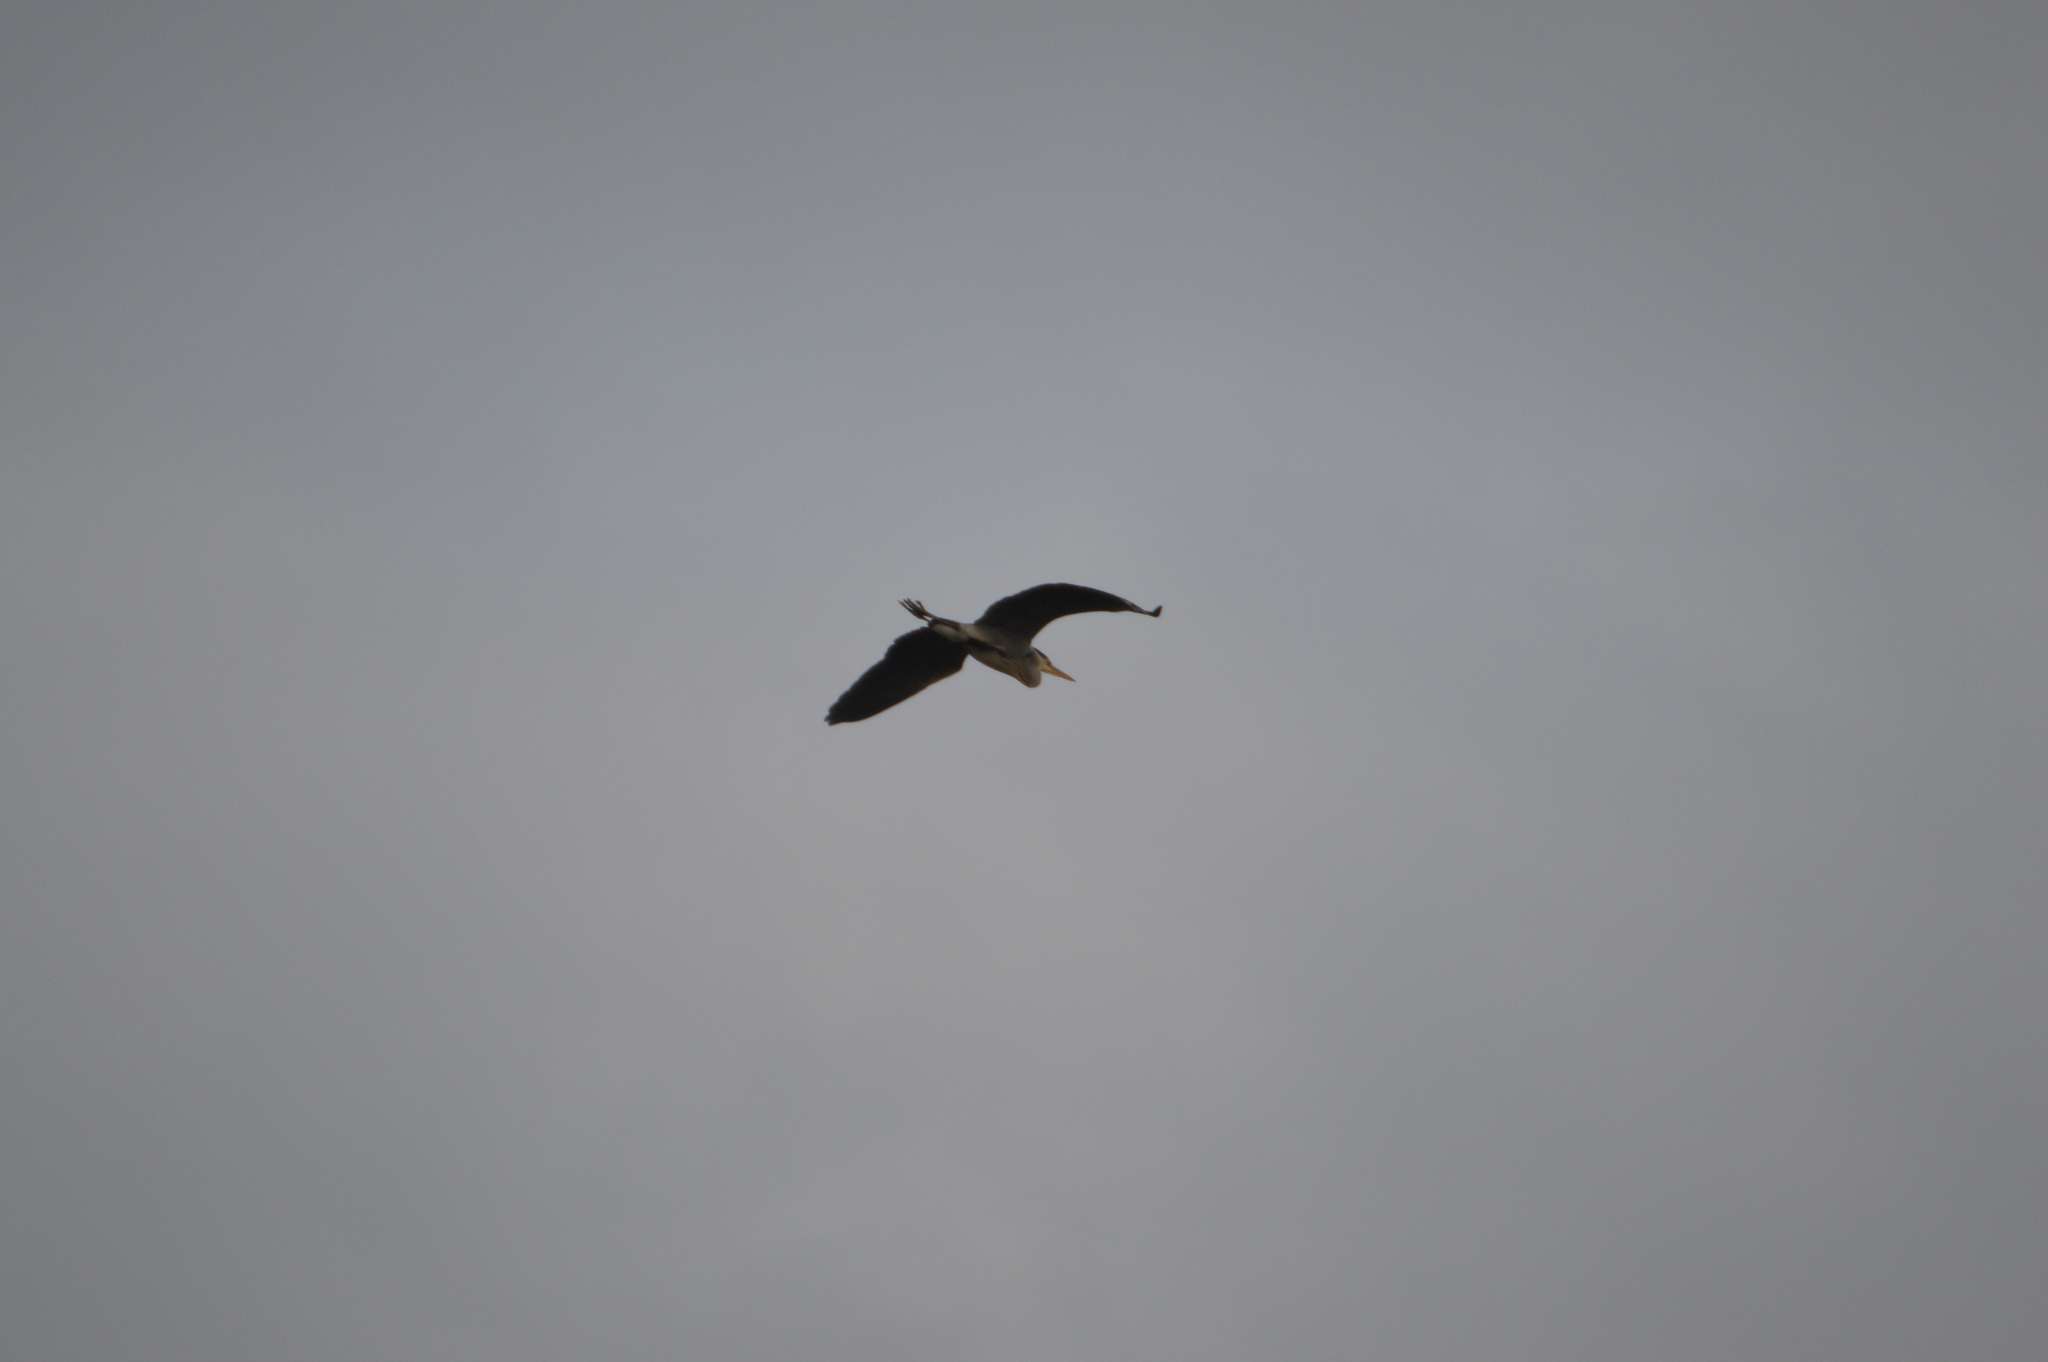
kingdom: Animalia
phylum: Chordata
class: Aves
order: Pelecaniformes
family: Ardeidae
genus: Ardea
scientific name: Ardea cinerea
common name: Grey heron
